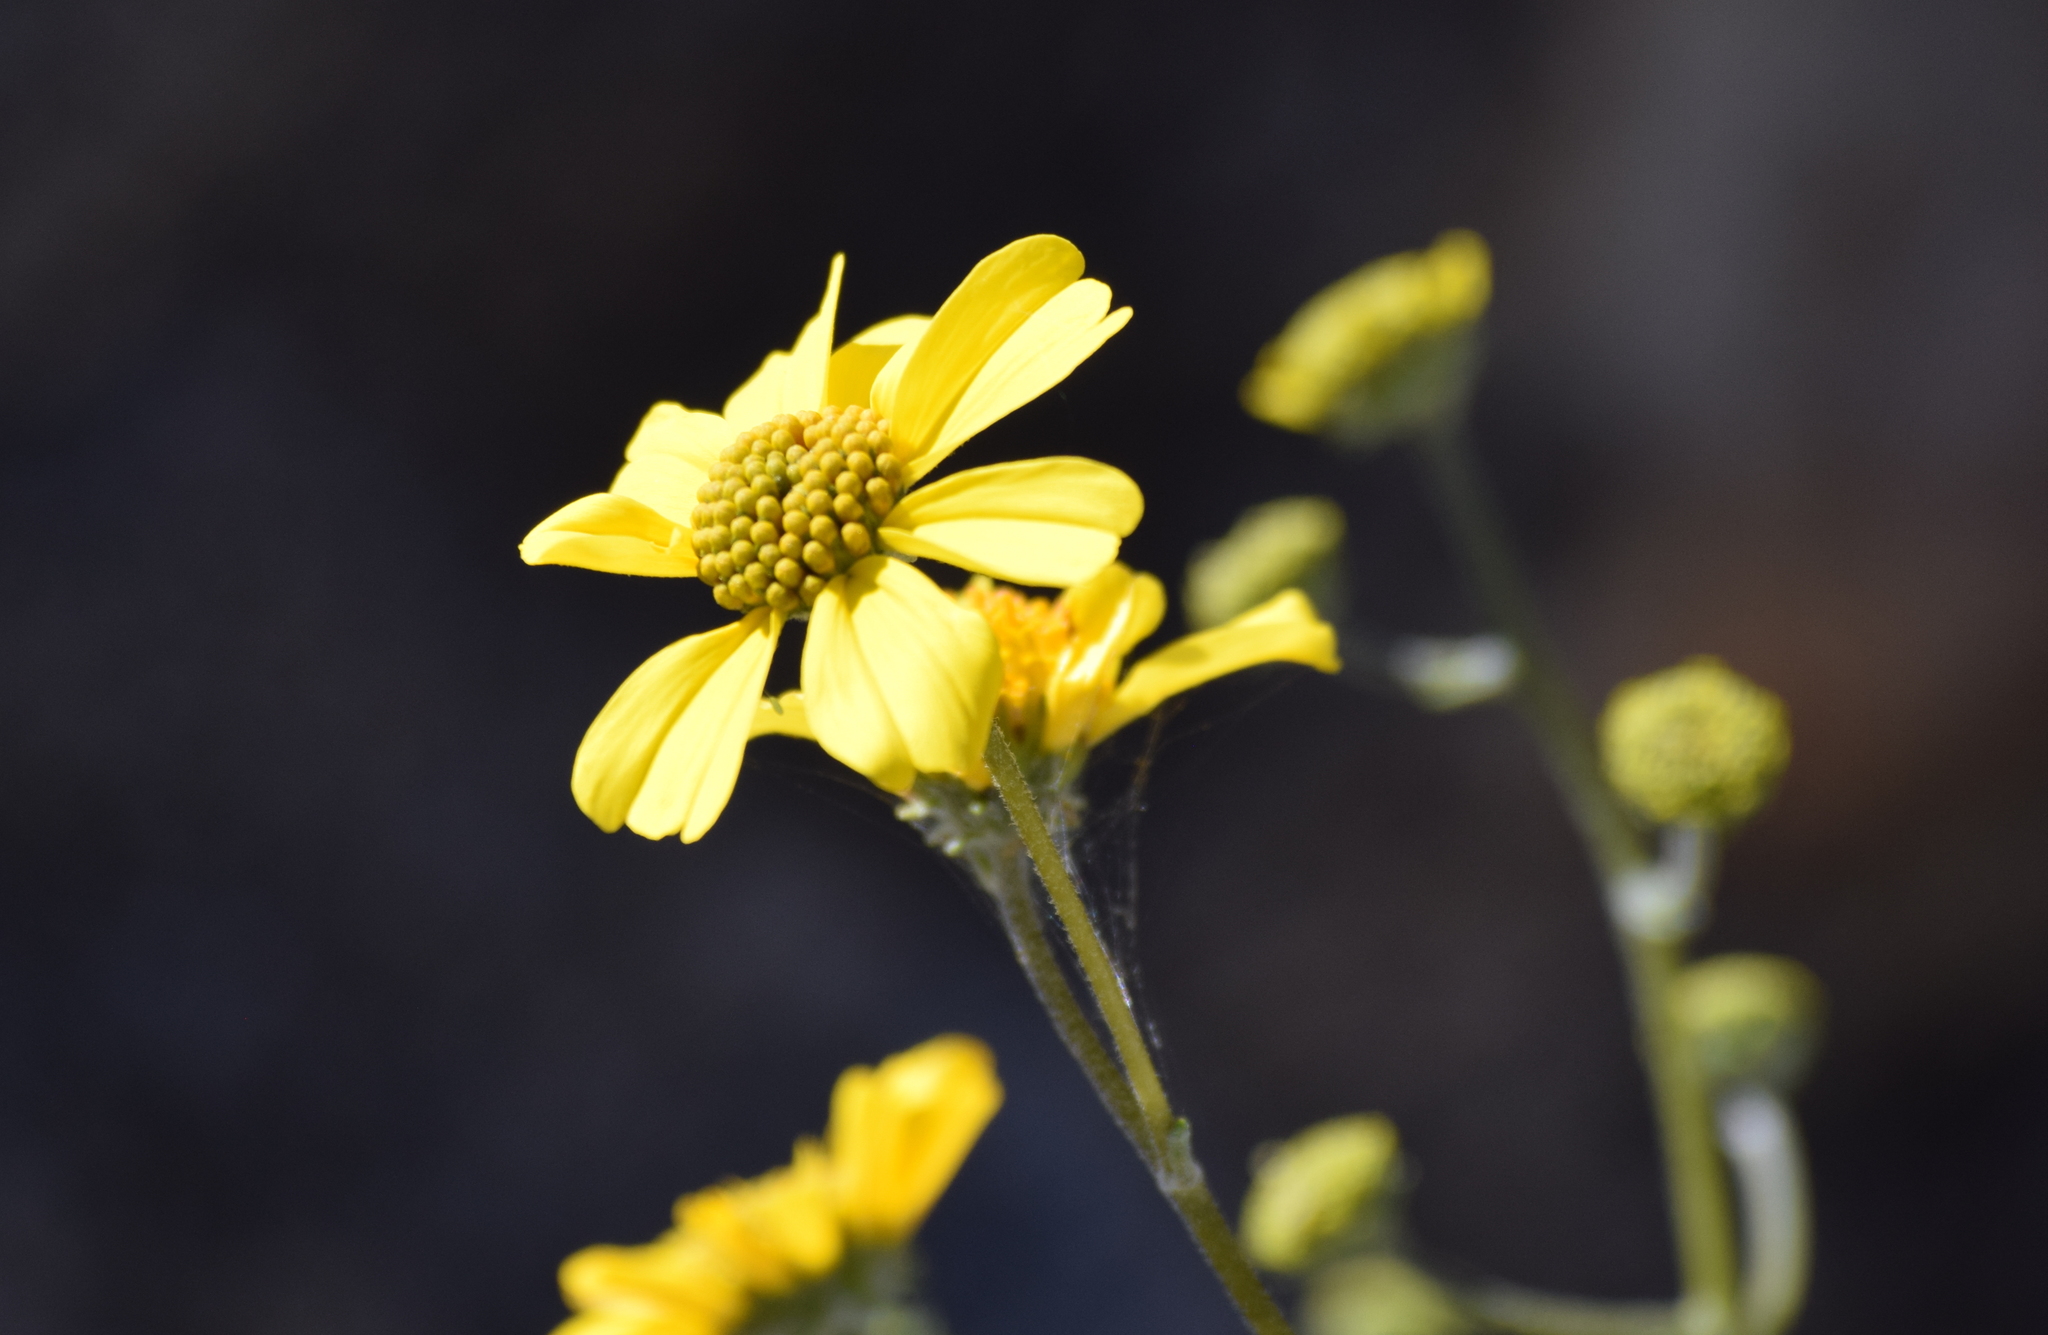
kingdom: Plantae
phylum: Tracheophyta
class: Magnoliopsida
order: Asterales
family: Asteraceae
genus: Encelia
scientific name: Encelia farinosa
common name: Brittlebush
